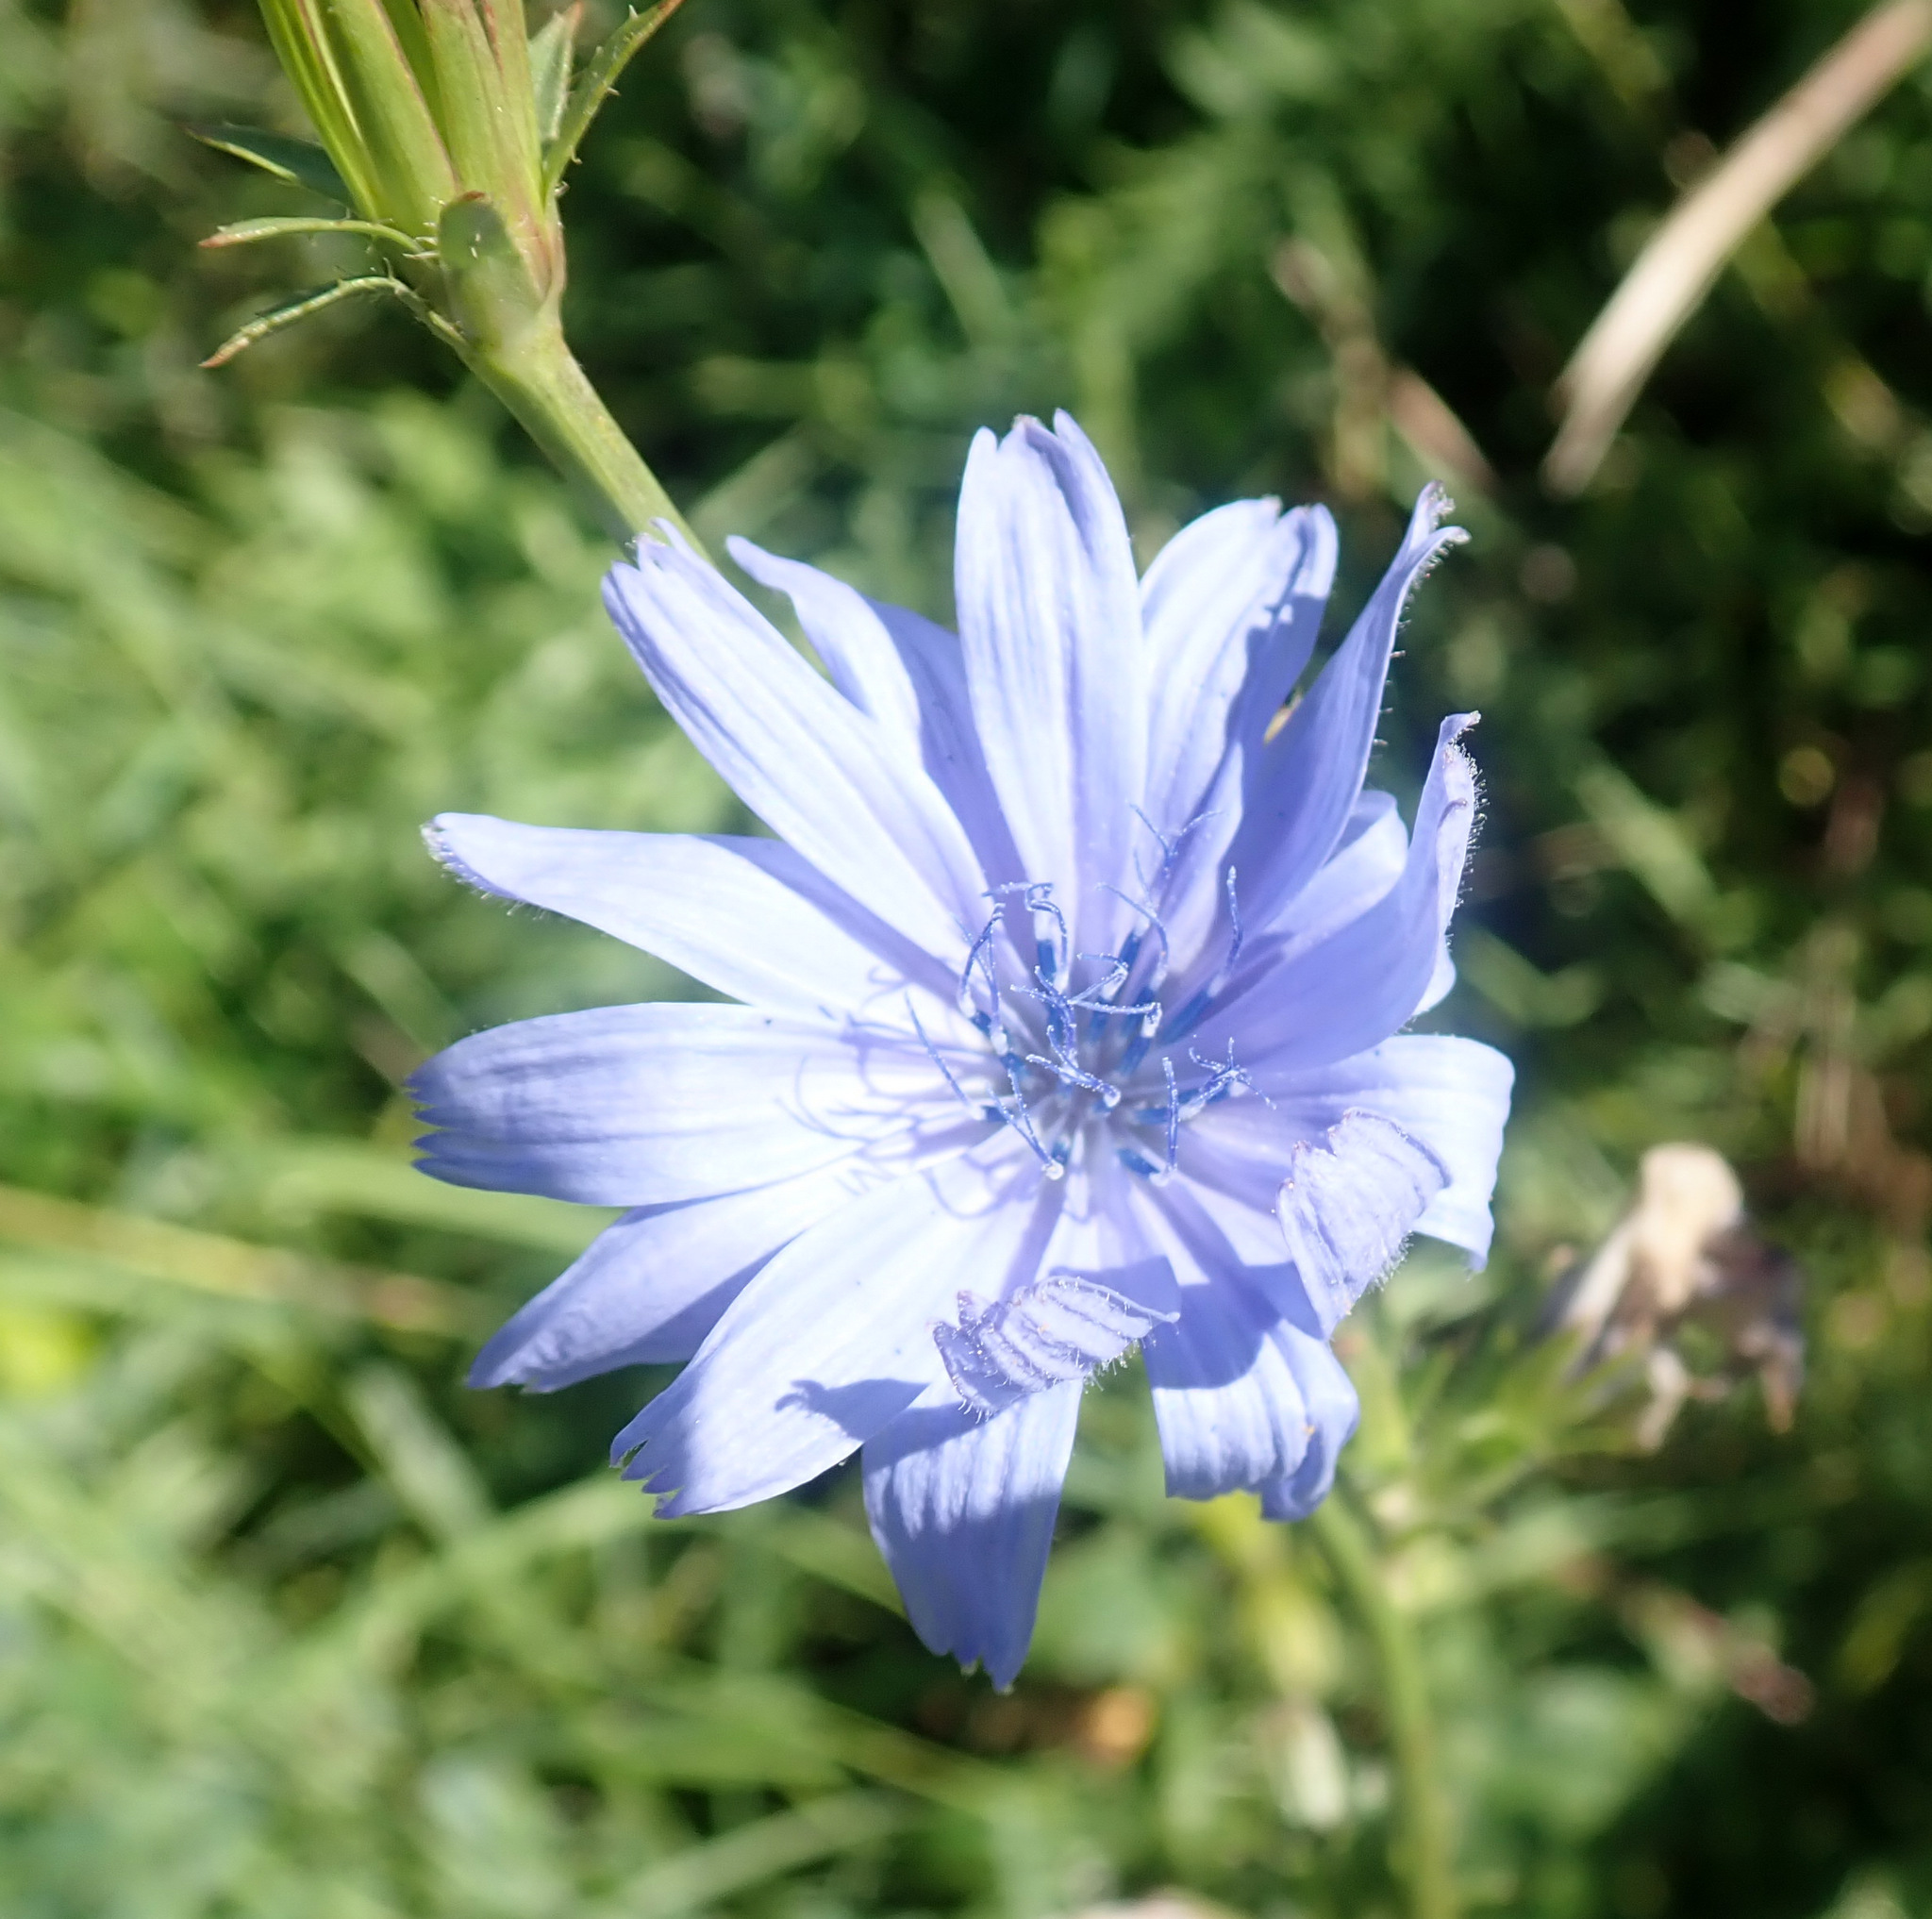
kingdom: Plantae
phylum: Tracheophyta
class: Magnoliopsida
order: Asterales
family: Asteraceae
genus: Cichorium
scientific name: Cichorium intybus
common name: Chicory
